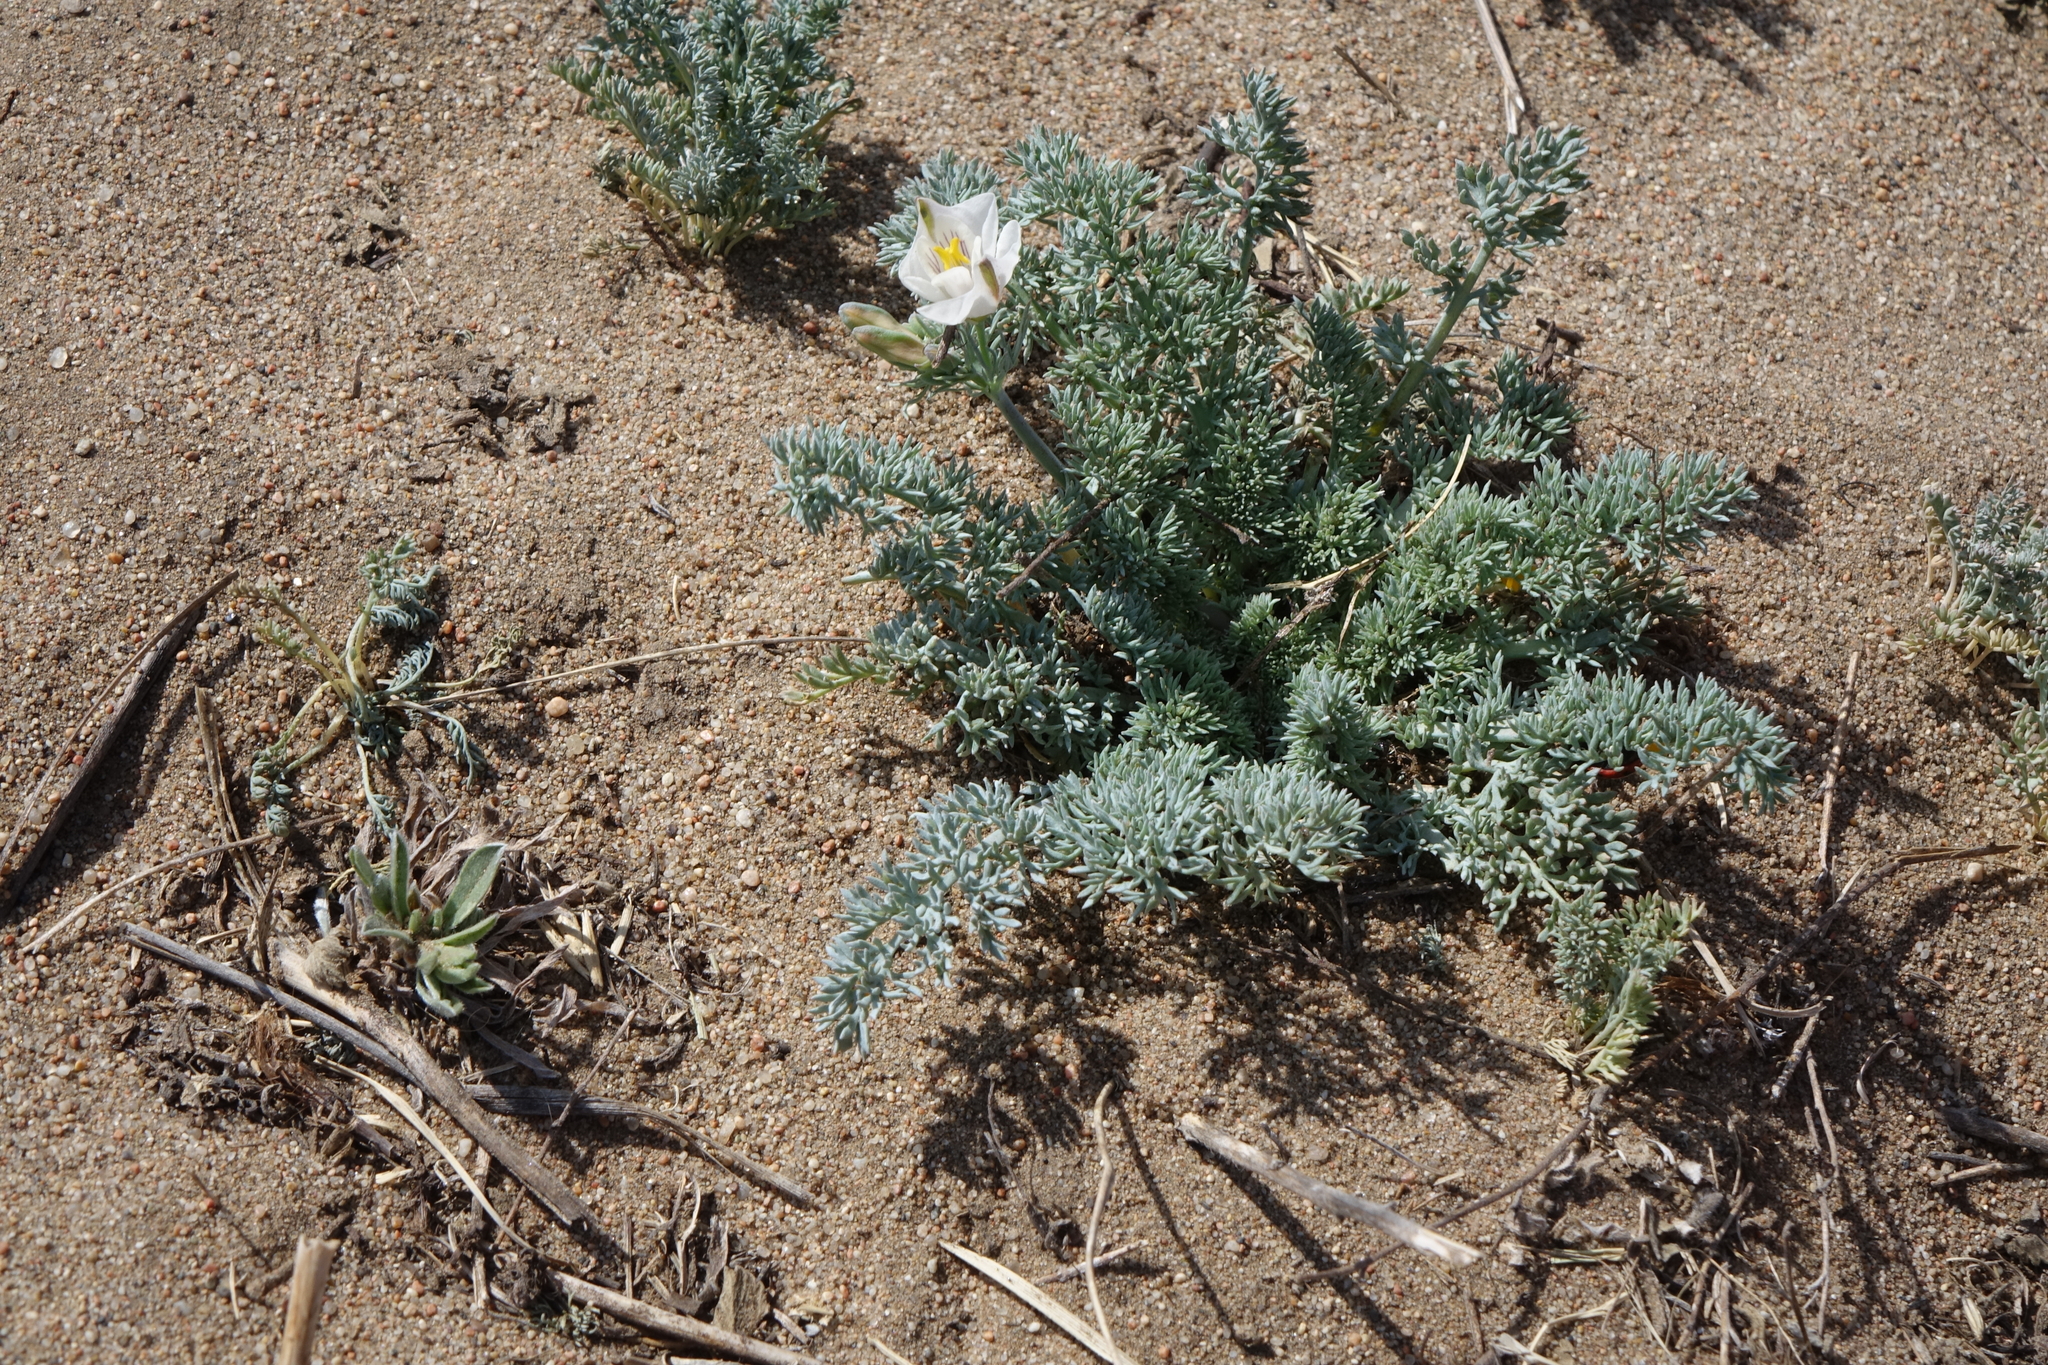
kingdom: Plantae
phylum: Tracheophyta
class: Magnoliopsida
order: Ranunculales
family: Papaveraceae
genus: Hypecoum
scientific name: Hypecoum lactiflorum
